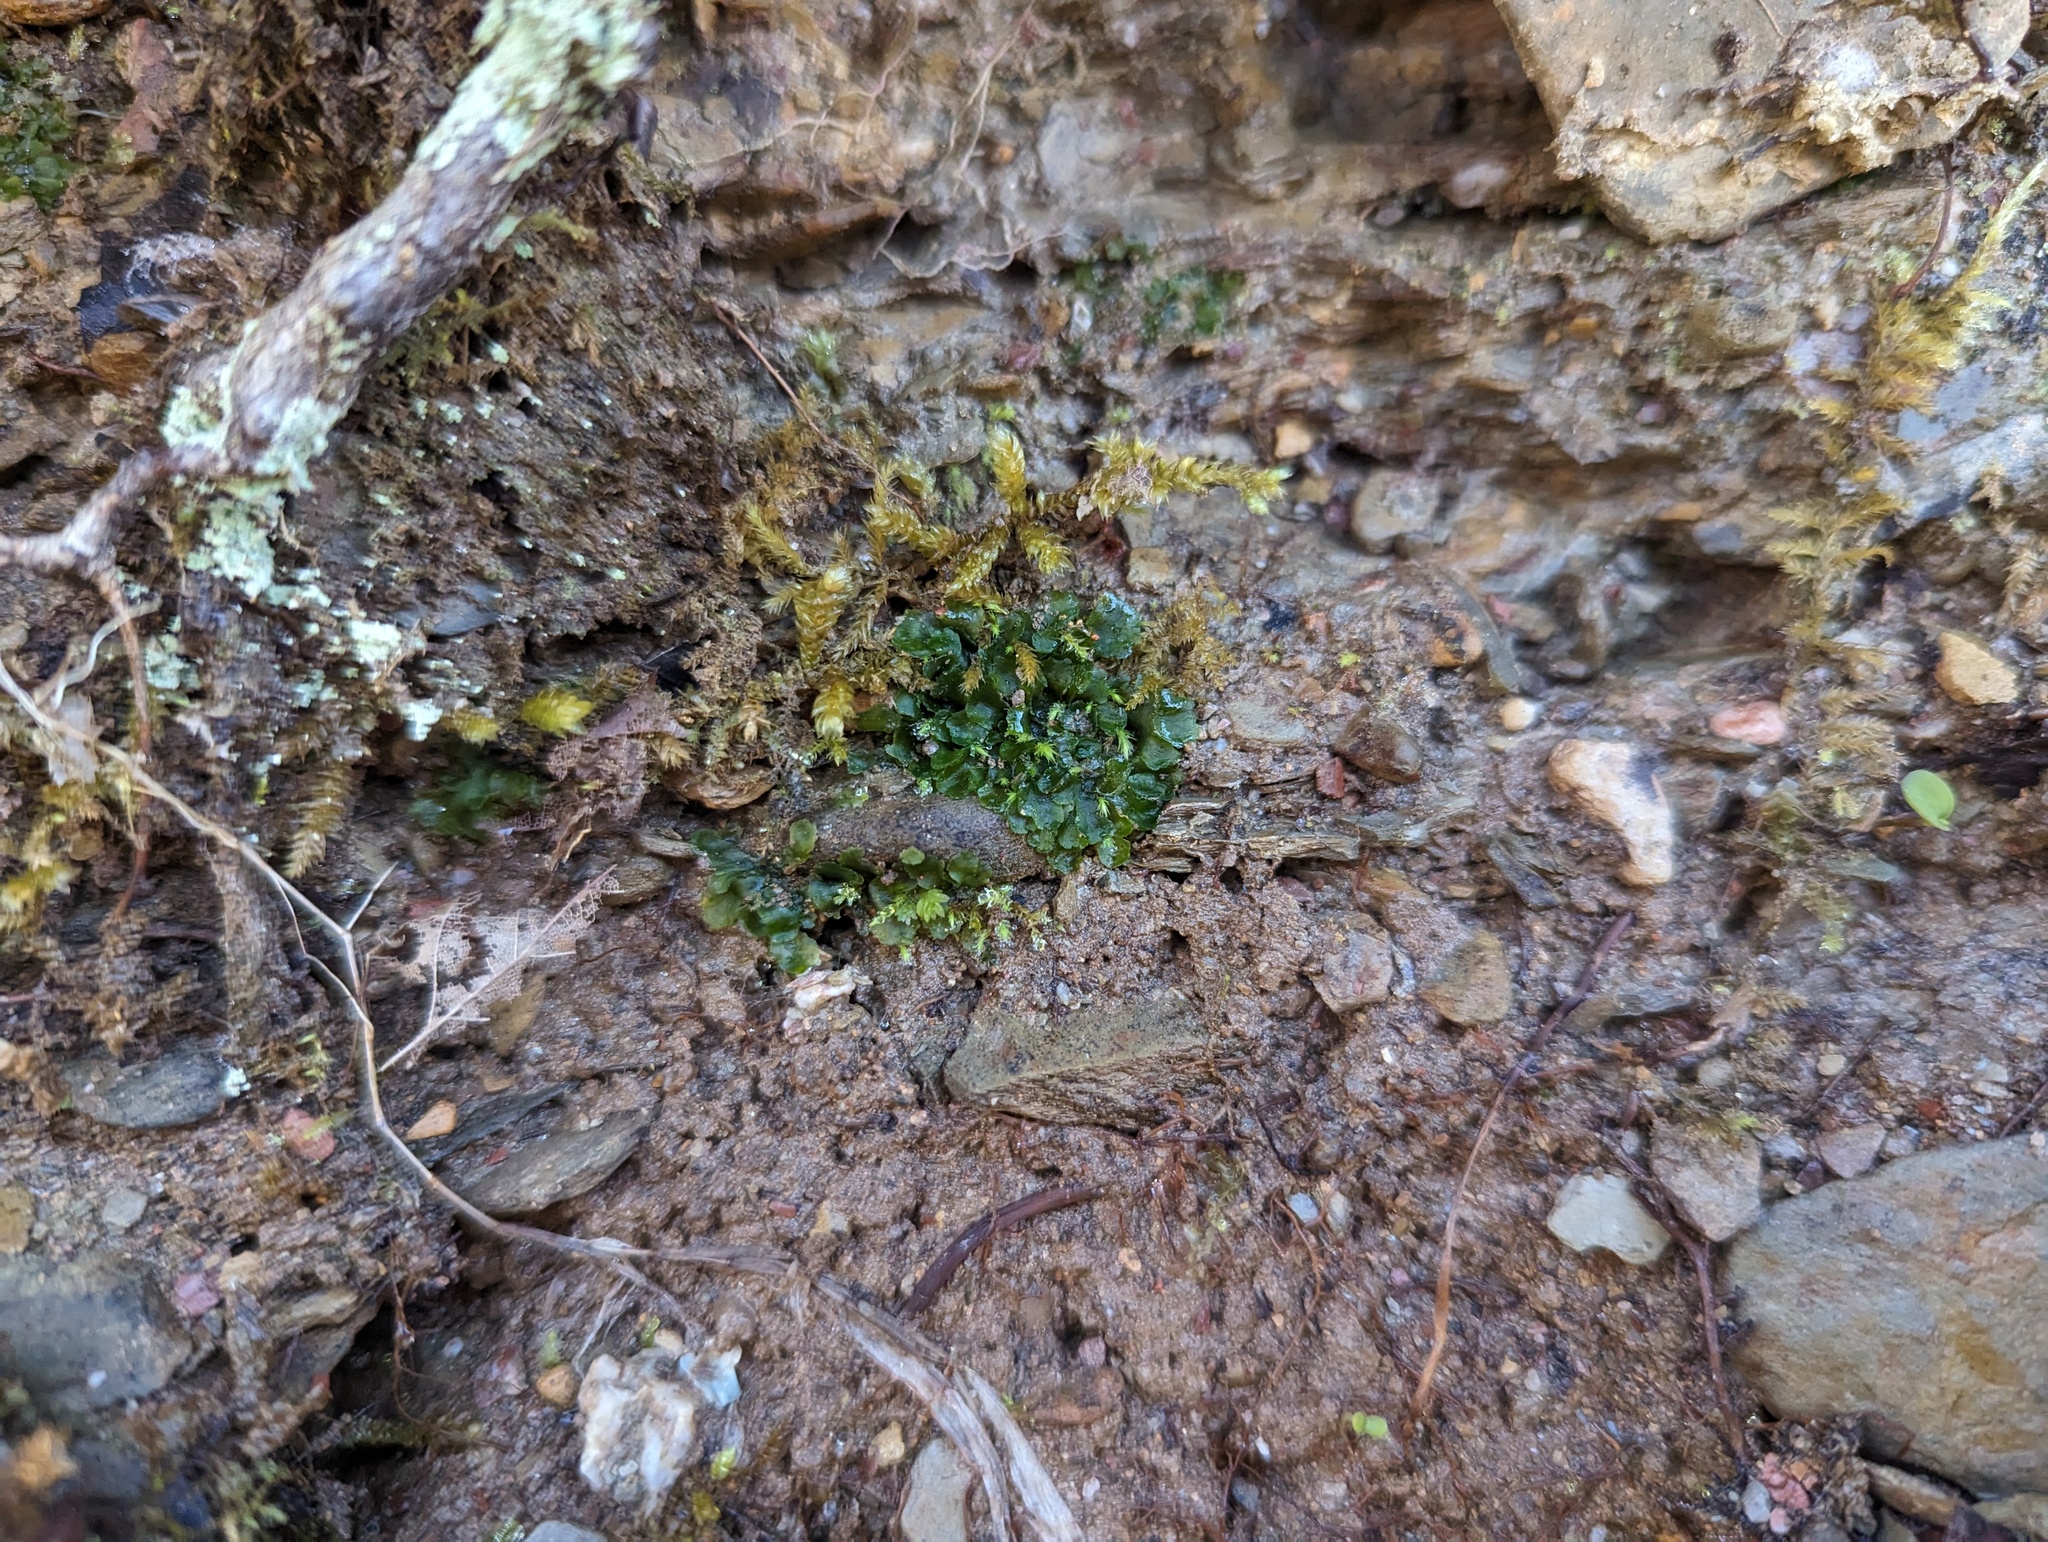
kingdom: Plantae
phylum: Anthocerotophyta
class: Anthocerotopsida
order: Notothyladales
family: Notothyladaceae
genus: Phaeoceros
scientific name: Phaeoceros carolinianus
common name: Carolina hornwort
